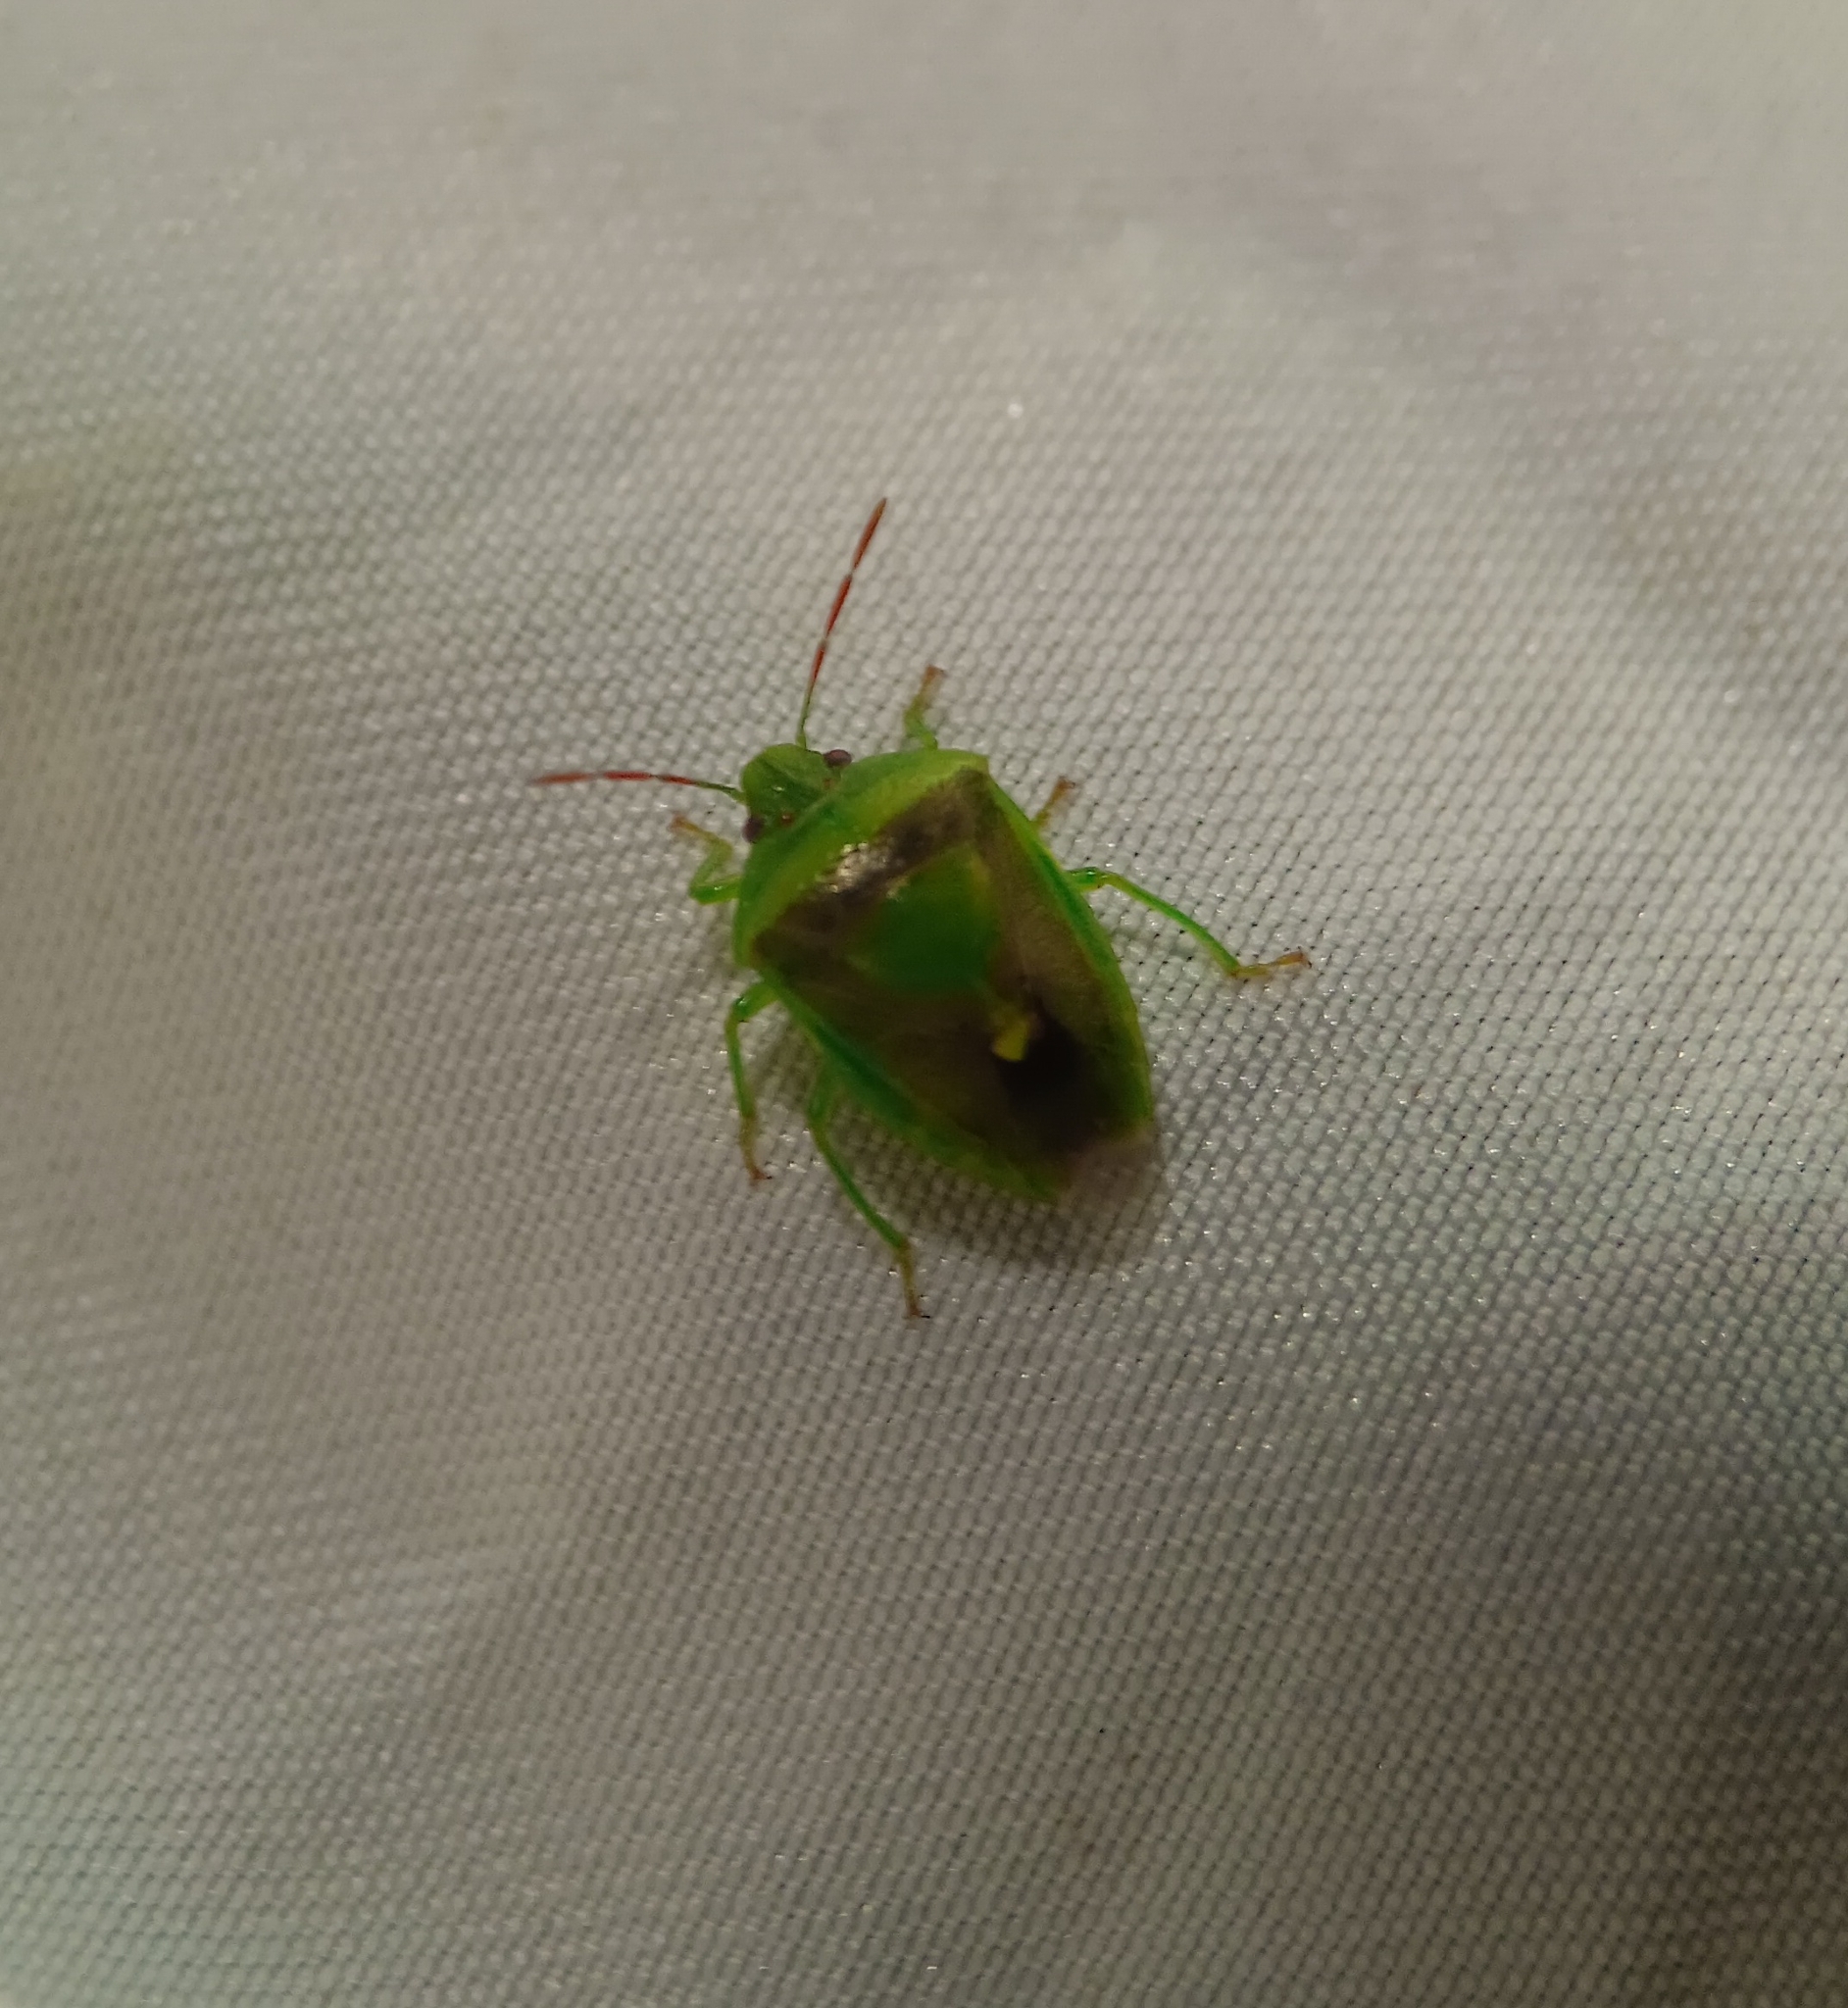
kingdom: Animalia
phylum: Arthropoda
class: Insecta
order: Hemiptera
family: Pentatomidae
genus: Banasa
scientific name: Banasa dimidiata
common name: Green burgundy stink bug
